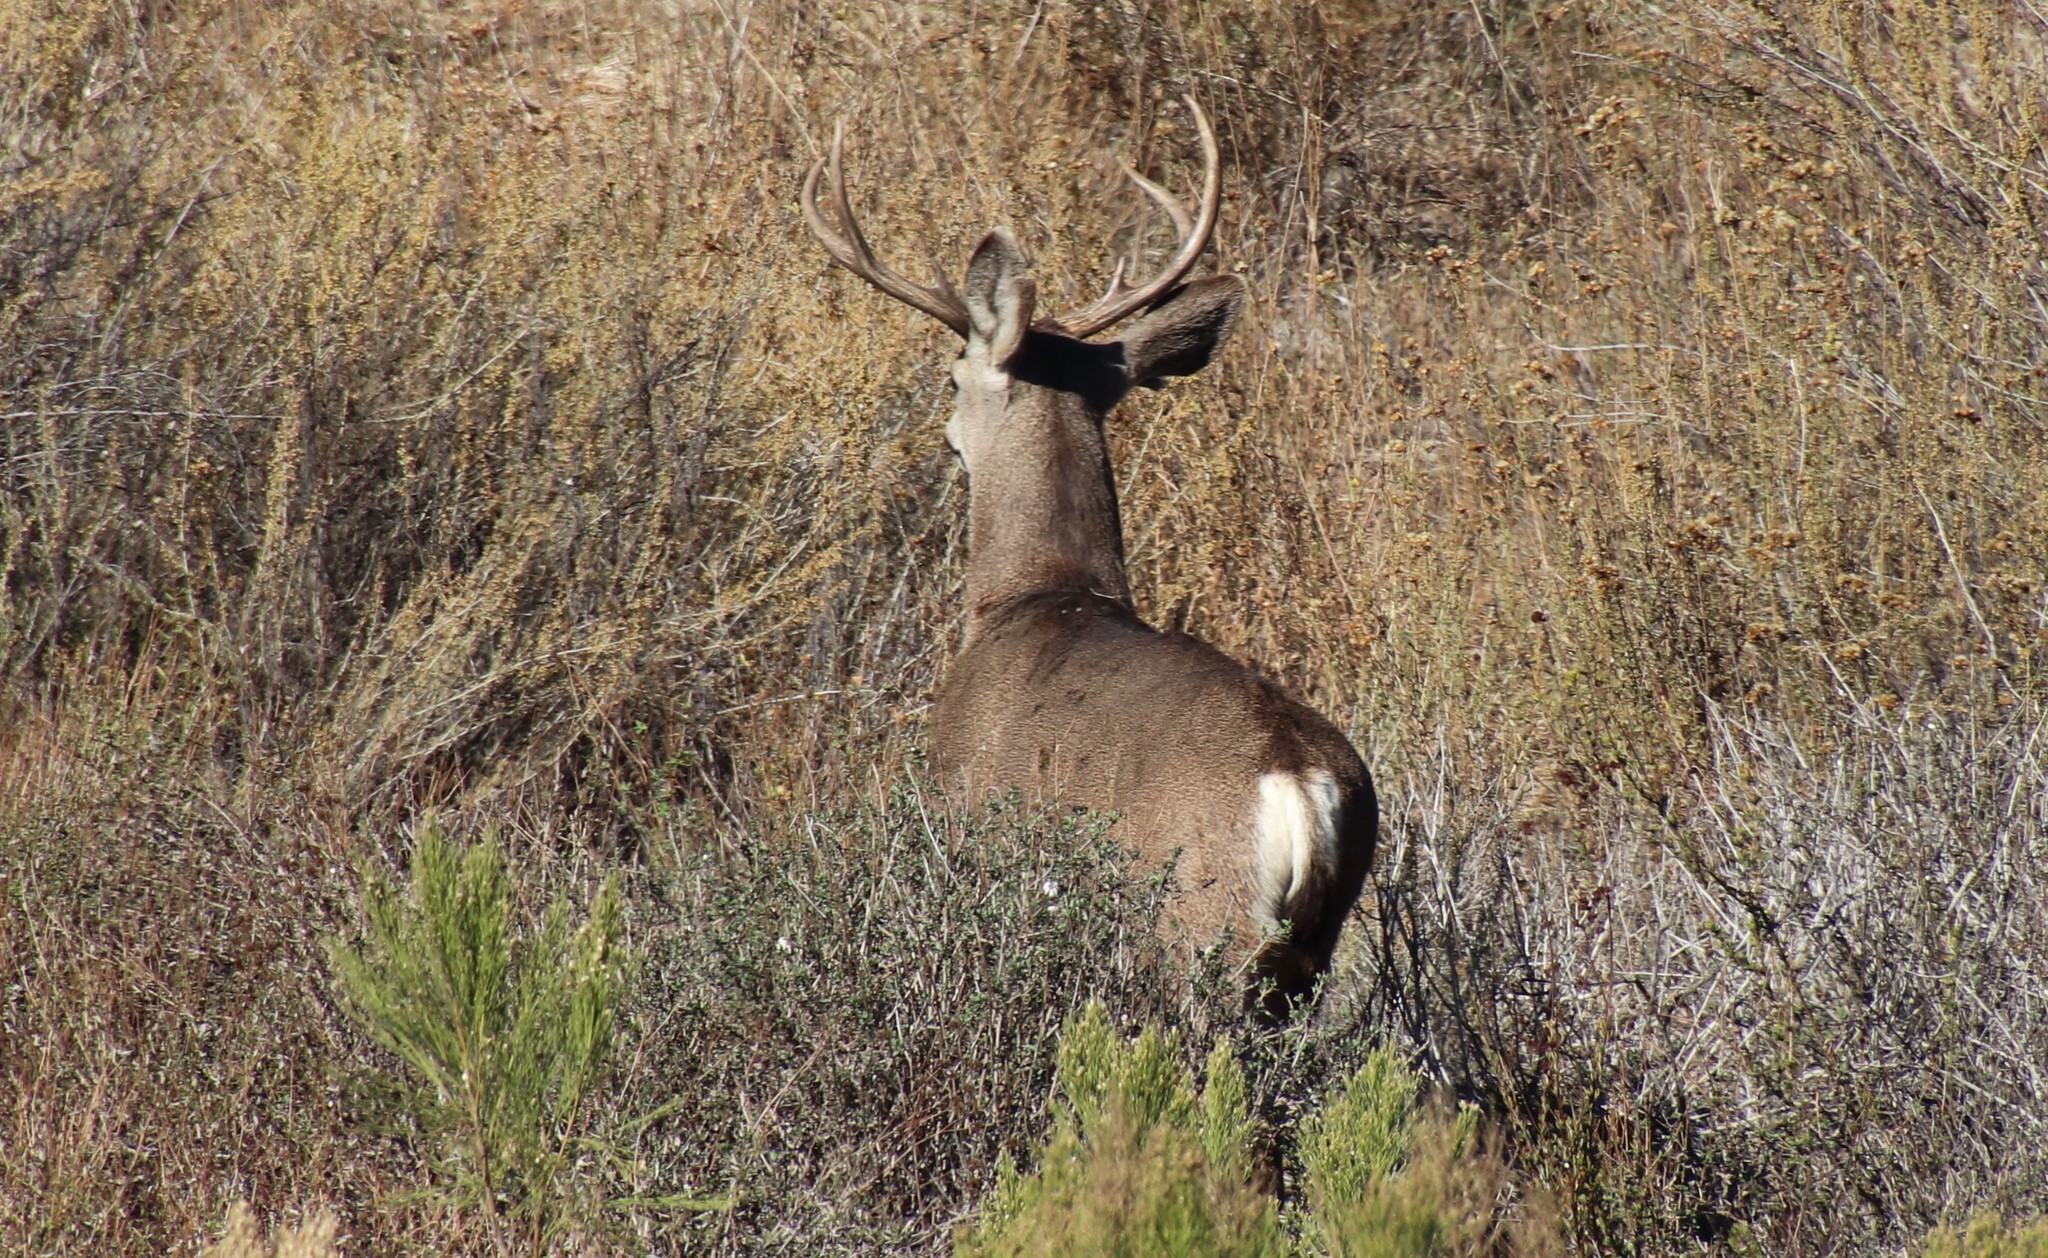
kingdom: Animalia
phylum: Chordata
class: Mammalia
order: Artiodactyla
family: Cervidae
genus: Odocoileus
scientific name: Odocoileus hemionus
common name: Mule deer
